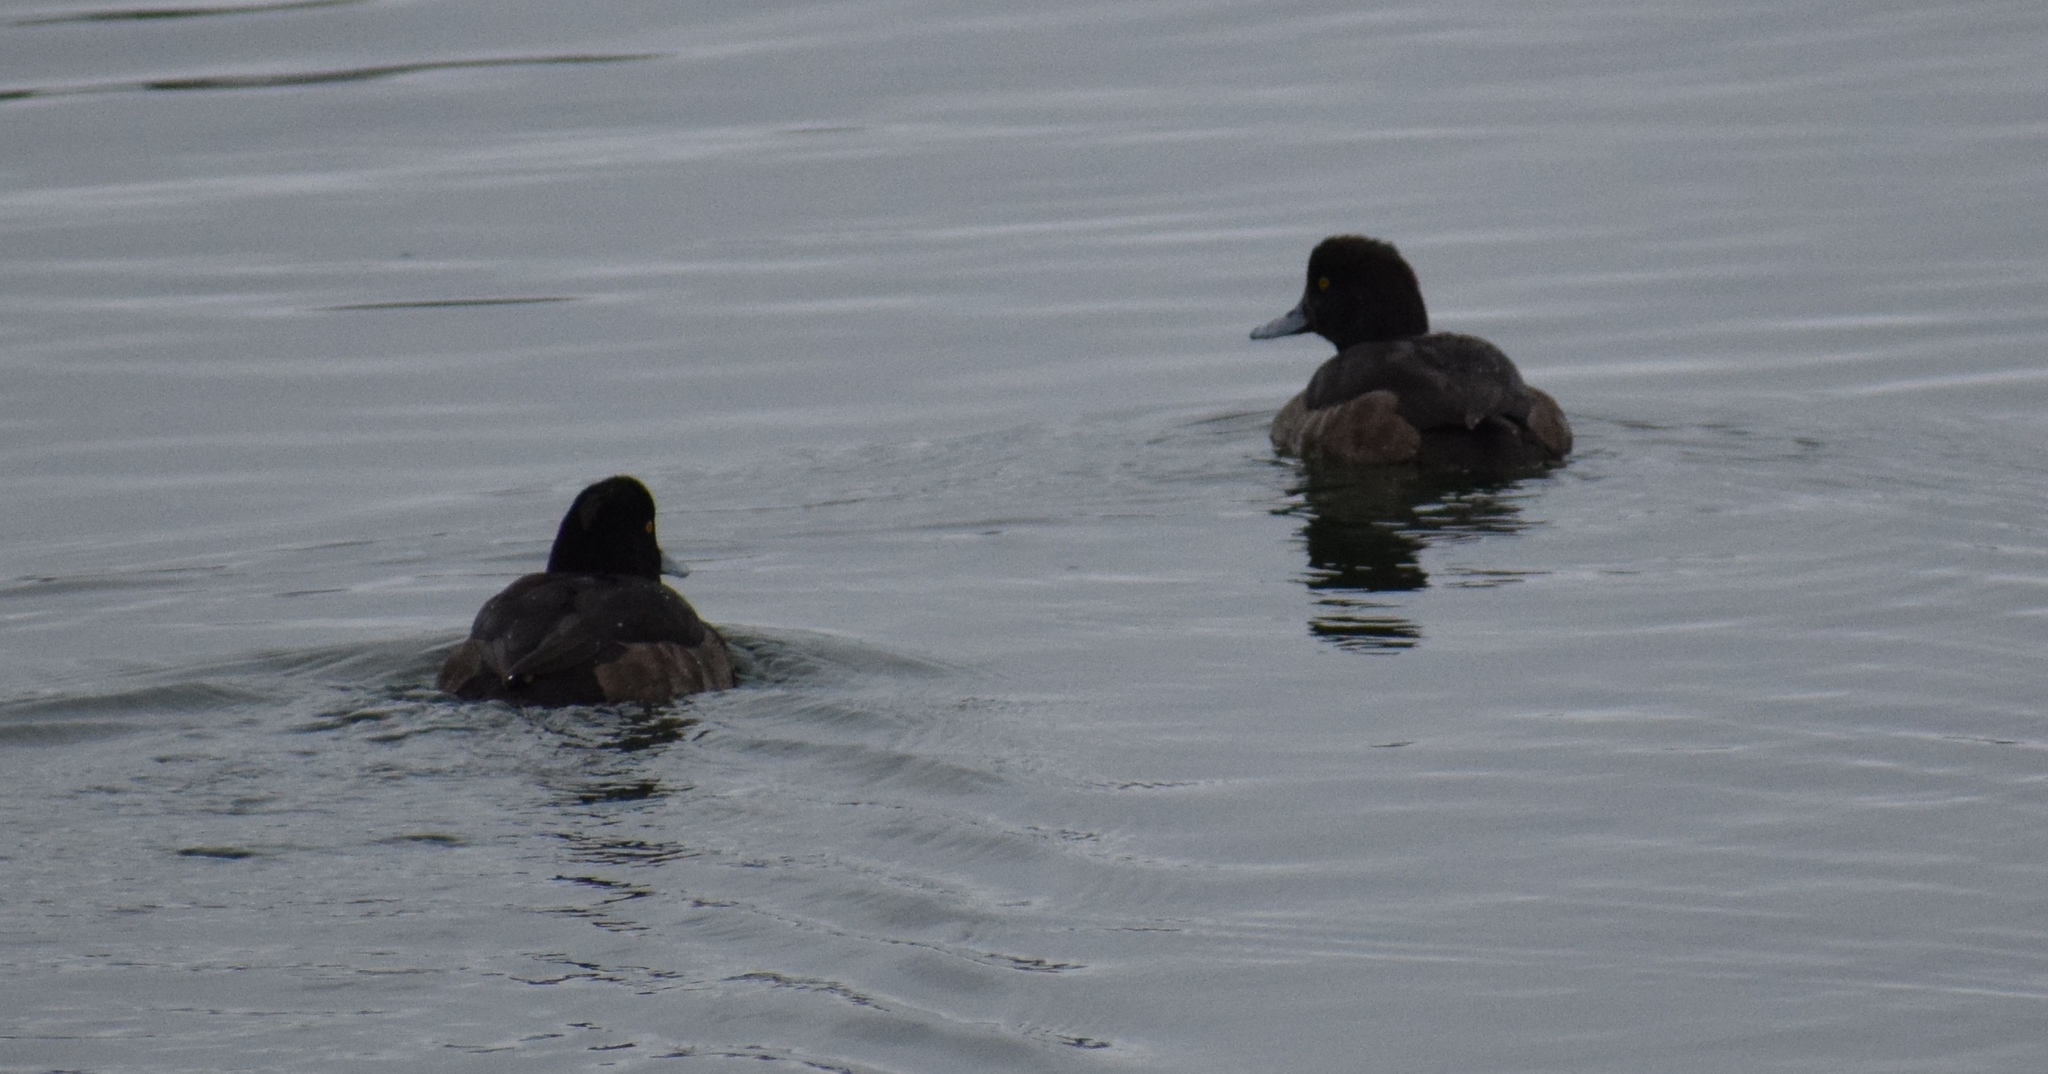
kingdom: Animalia
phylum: Chordata
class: Aves
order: Anseriformes
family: Anatidae
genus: Aythya
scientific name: Aythya fuligula
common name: Tufted duck
